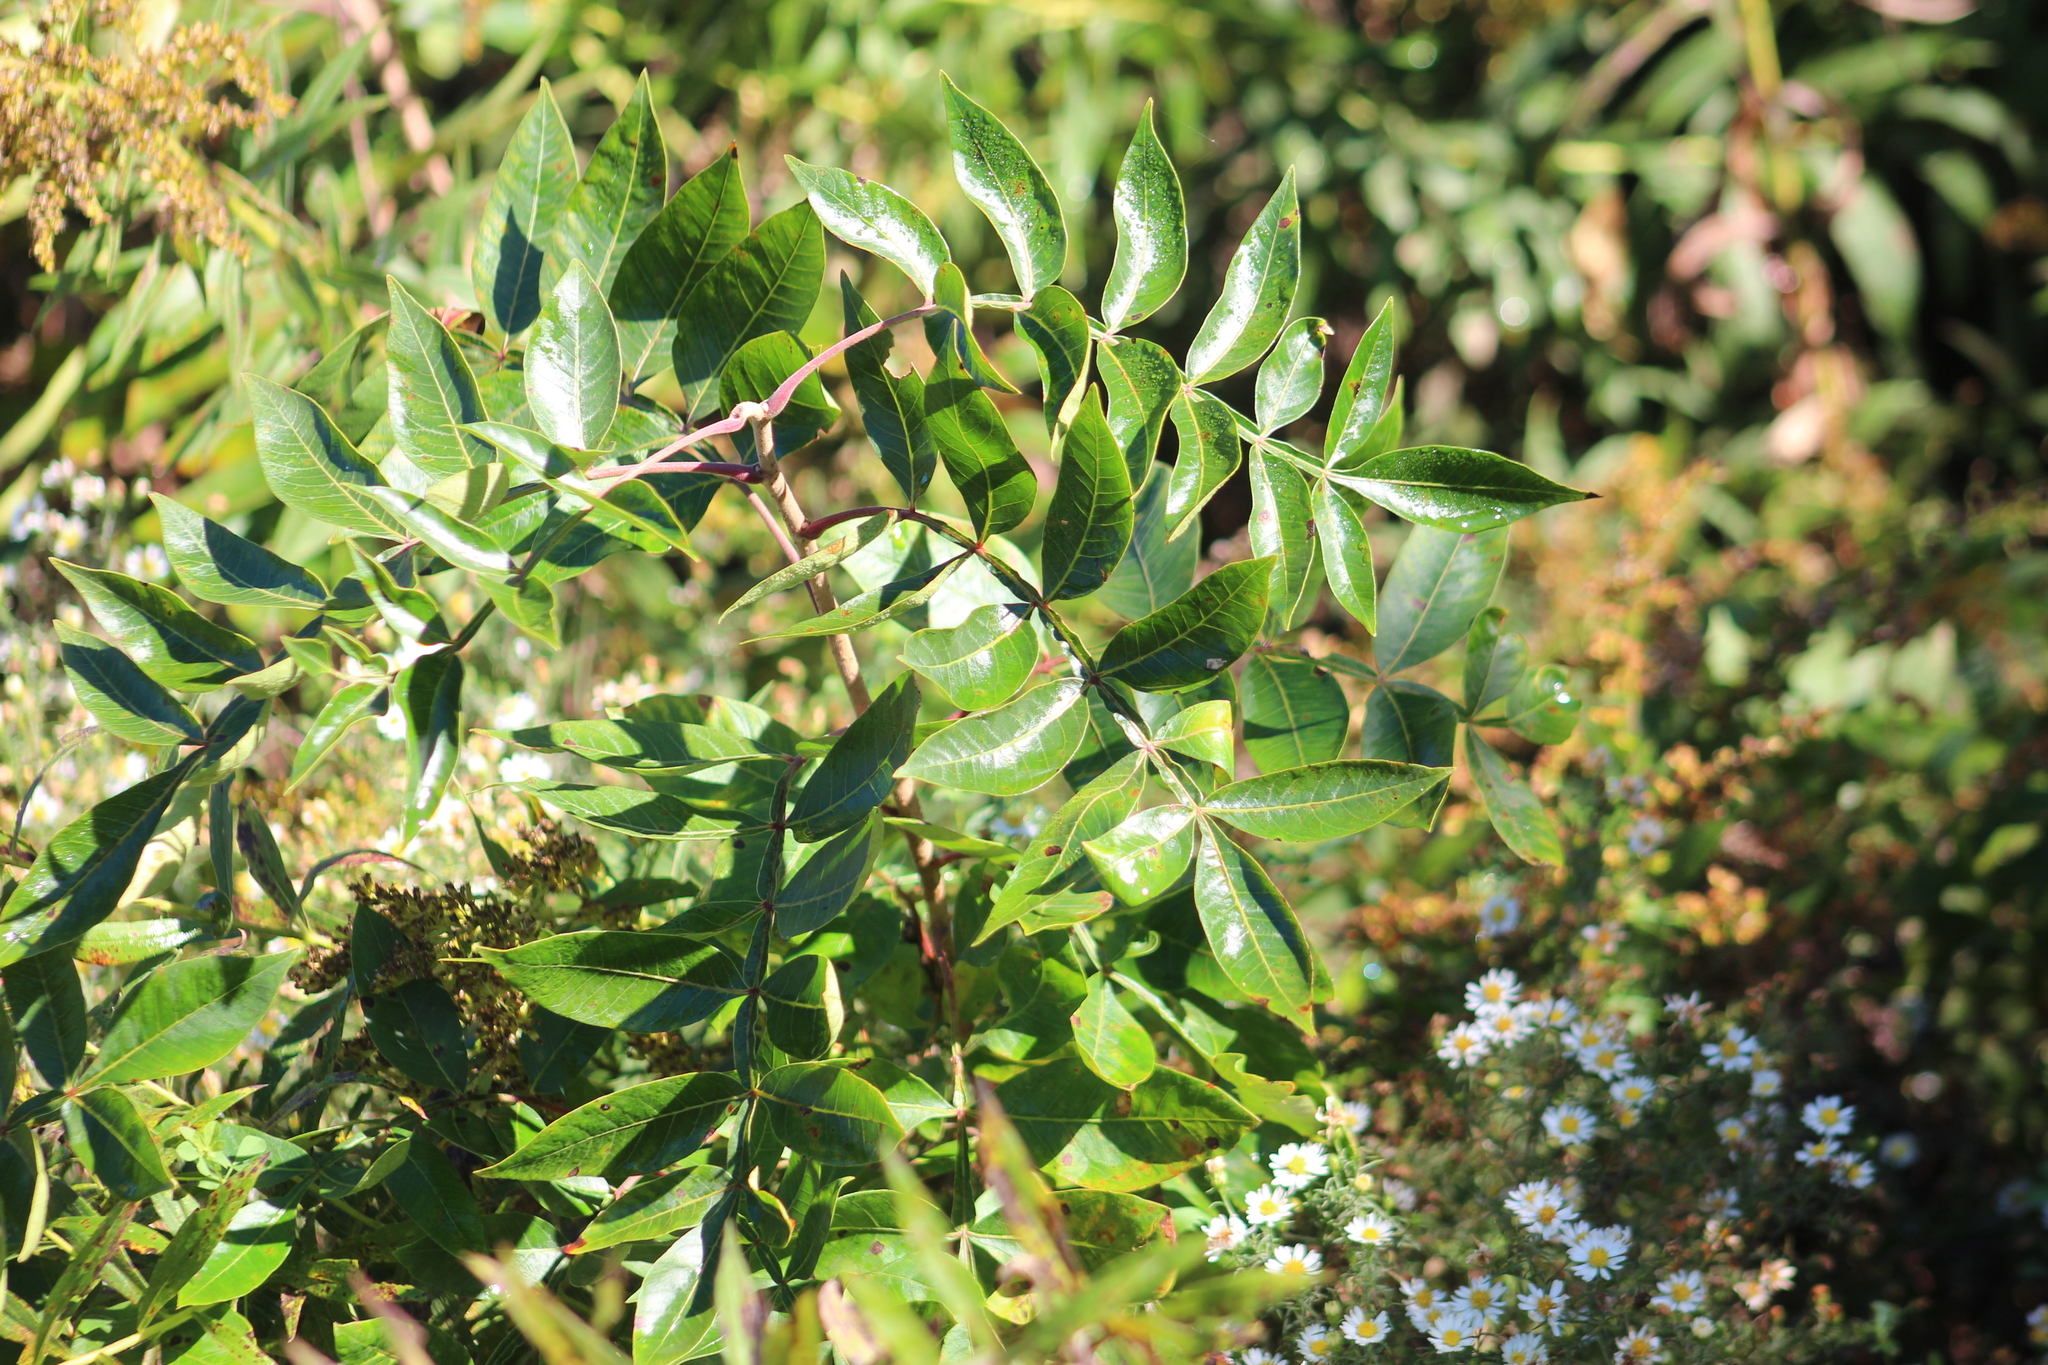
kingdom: Plantae
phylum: Tracheophyta
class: Magnoliopsida
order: Sapindales
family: Anacardiaceae
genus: Rhus
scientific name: Rhus copallina
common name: Shining sumac
